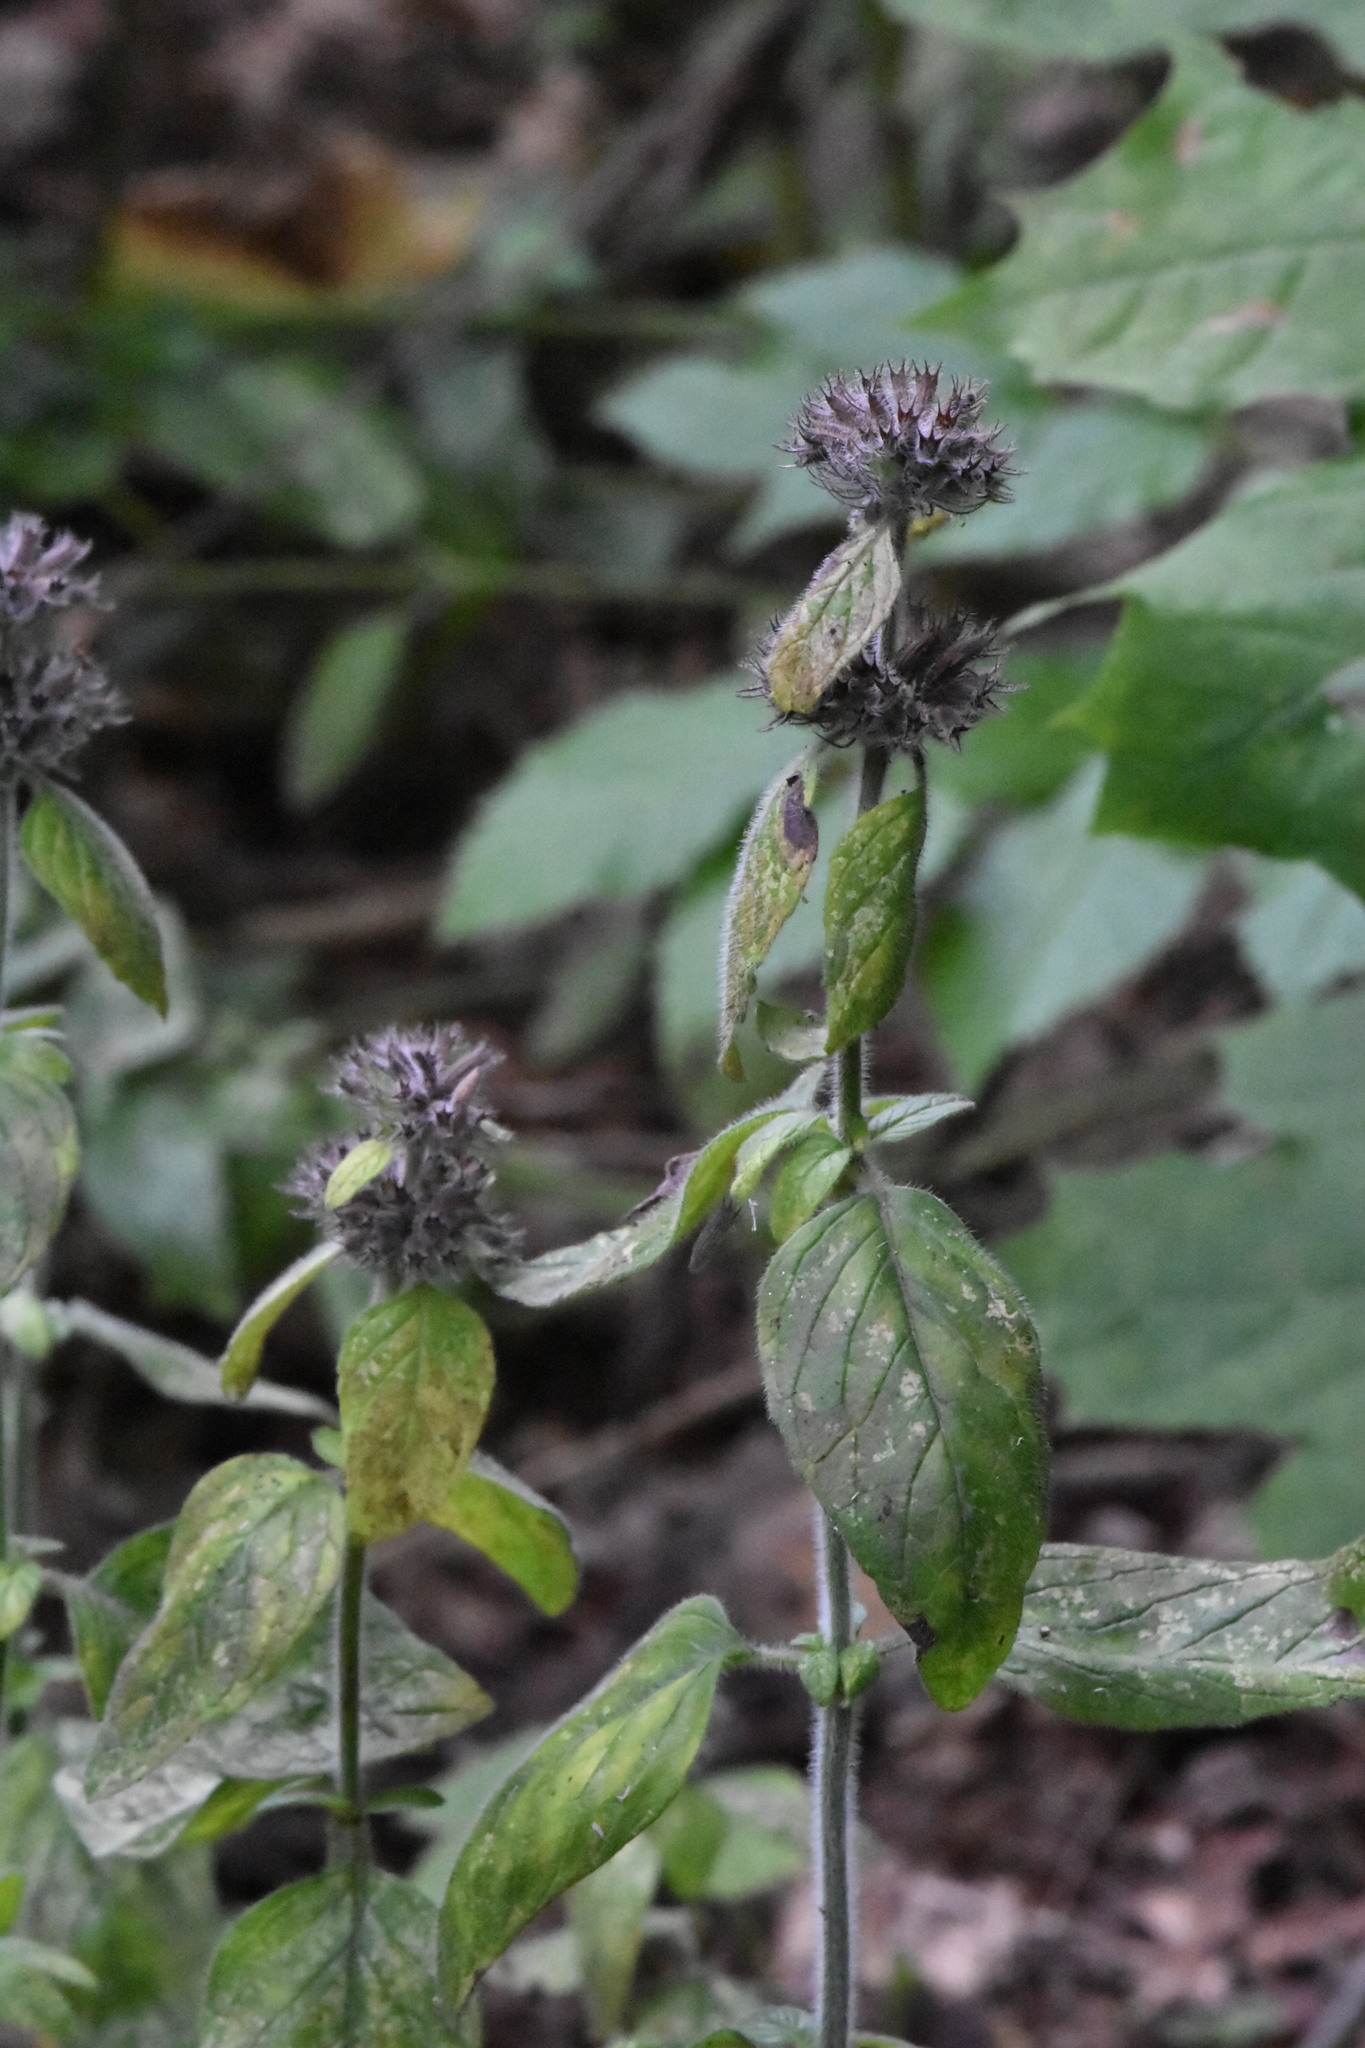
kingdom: Plantae
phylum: Tracheophyta
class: Magnoliopsida
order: Lamiales
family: Lamiaceae
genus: Clinopodium
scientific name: Clinopodium vulgare
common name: Wild basil
